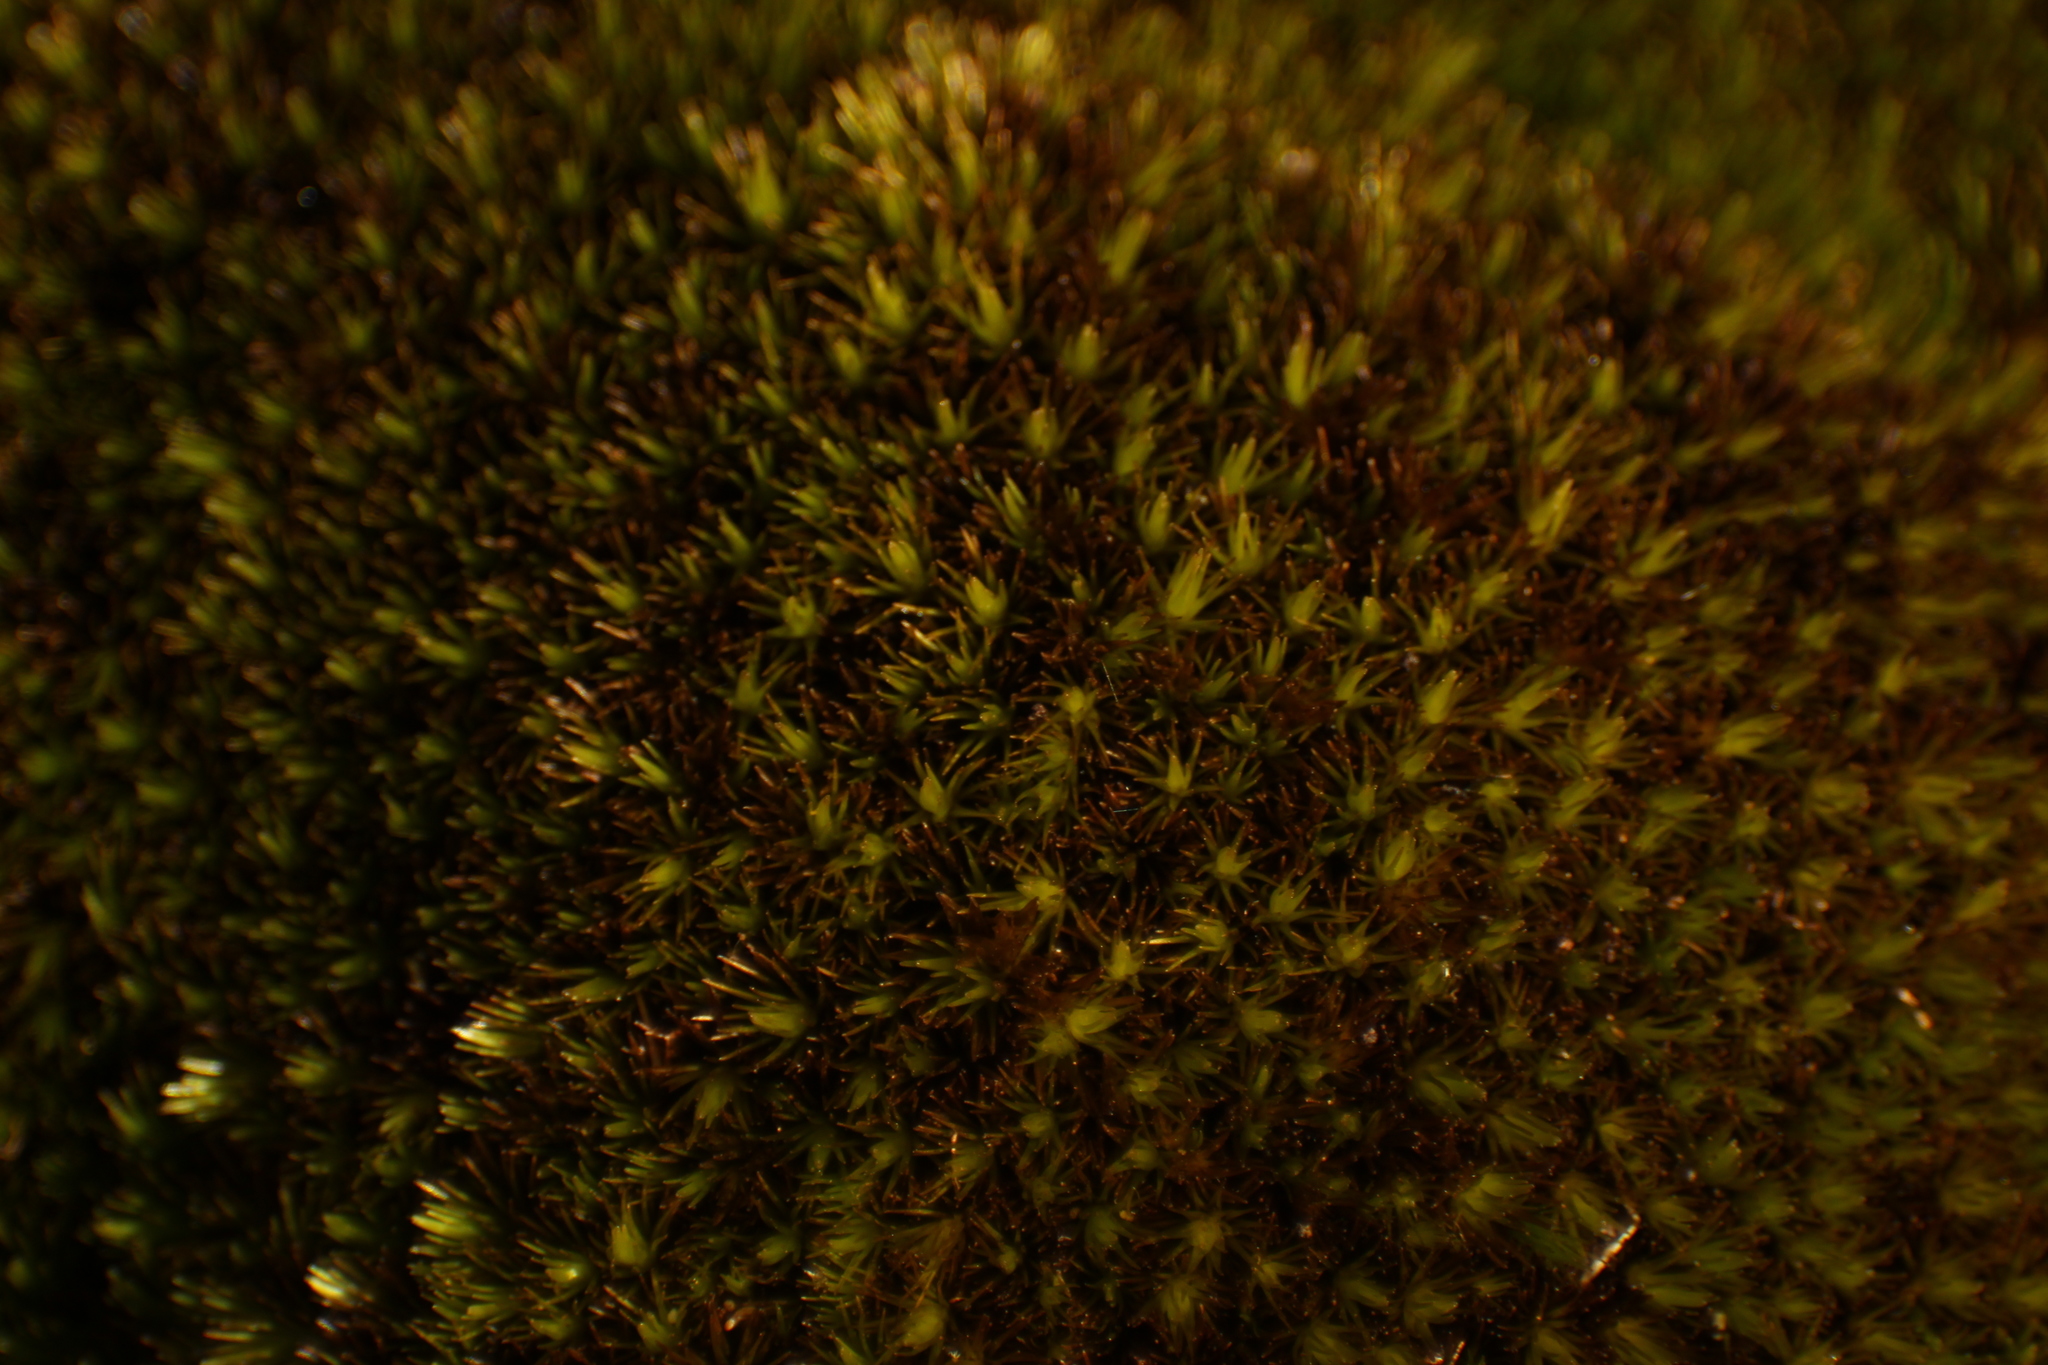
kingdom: Plantae
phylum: Bryophyta
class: Bryopsida
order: Dicranales
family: Leucobryaceae
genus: Campylopus
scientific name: Campylopus bicolor
